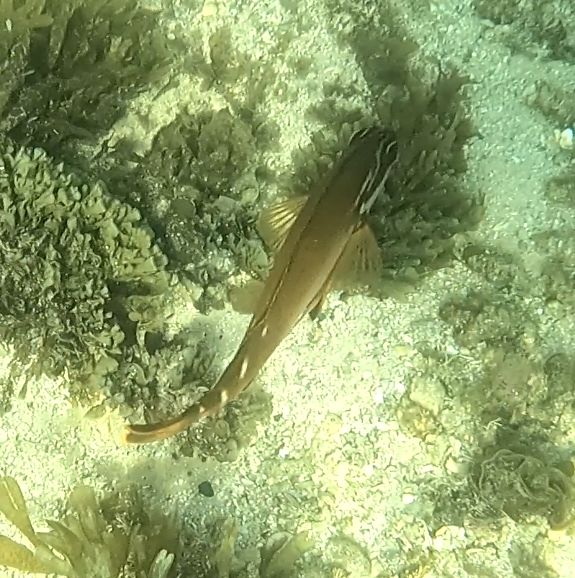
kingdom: Animalia
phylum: Chordata
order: Perciformes
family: Latridae
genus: Morwong
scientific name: Morwong fuscus
